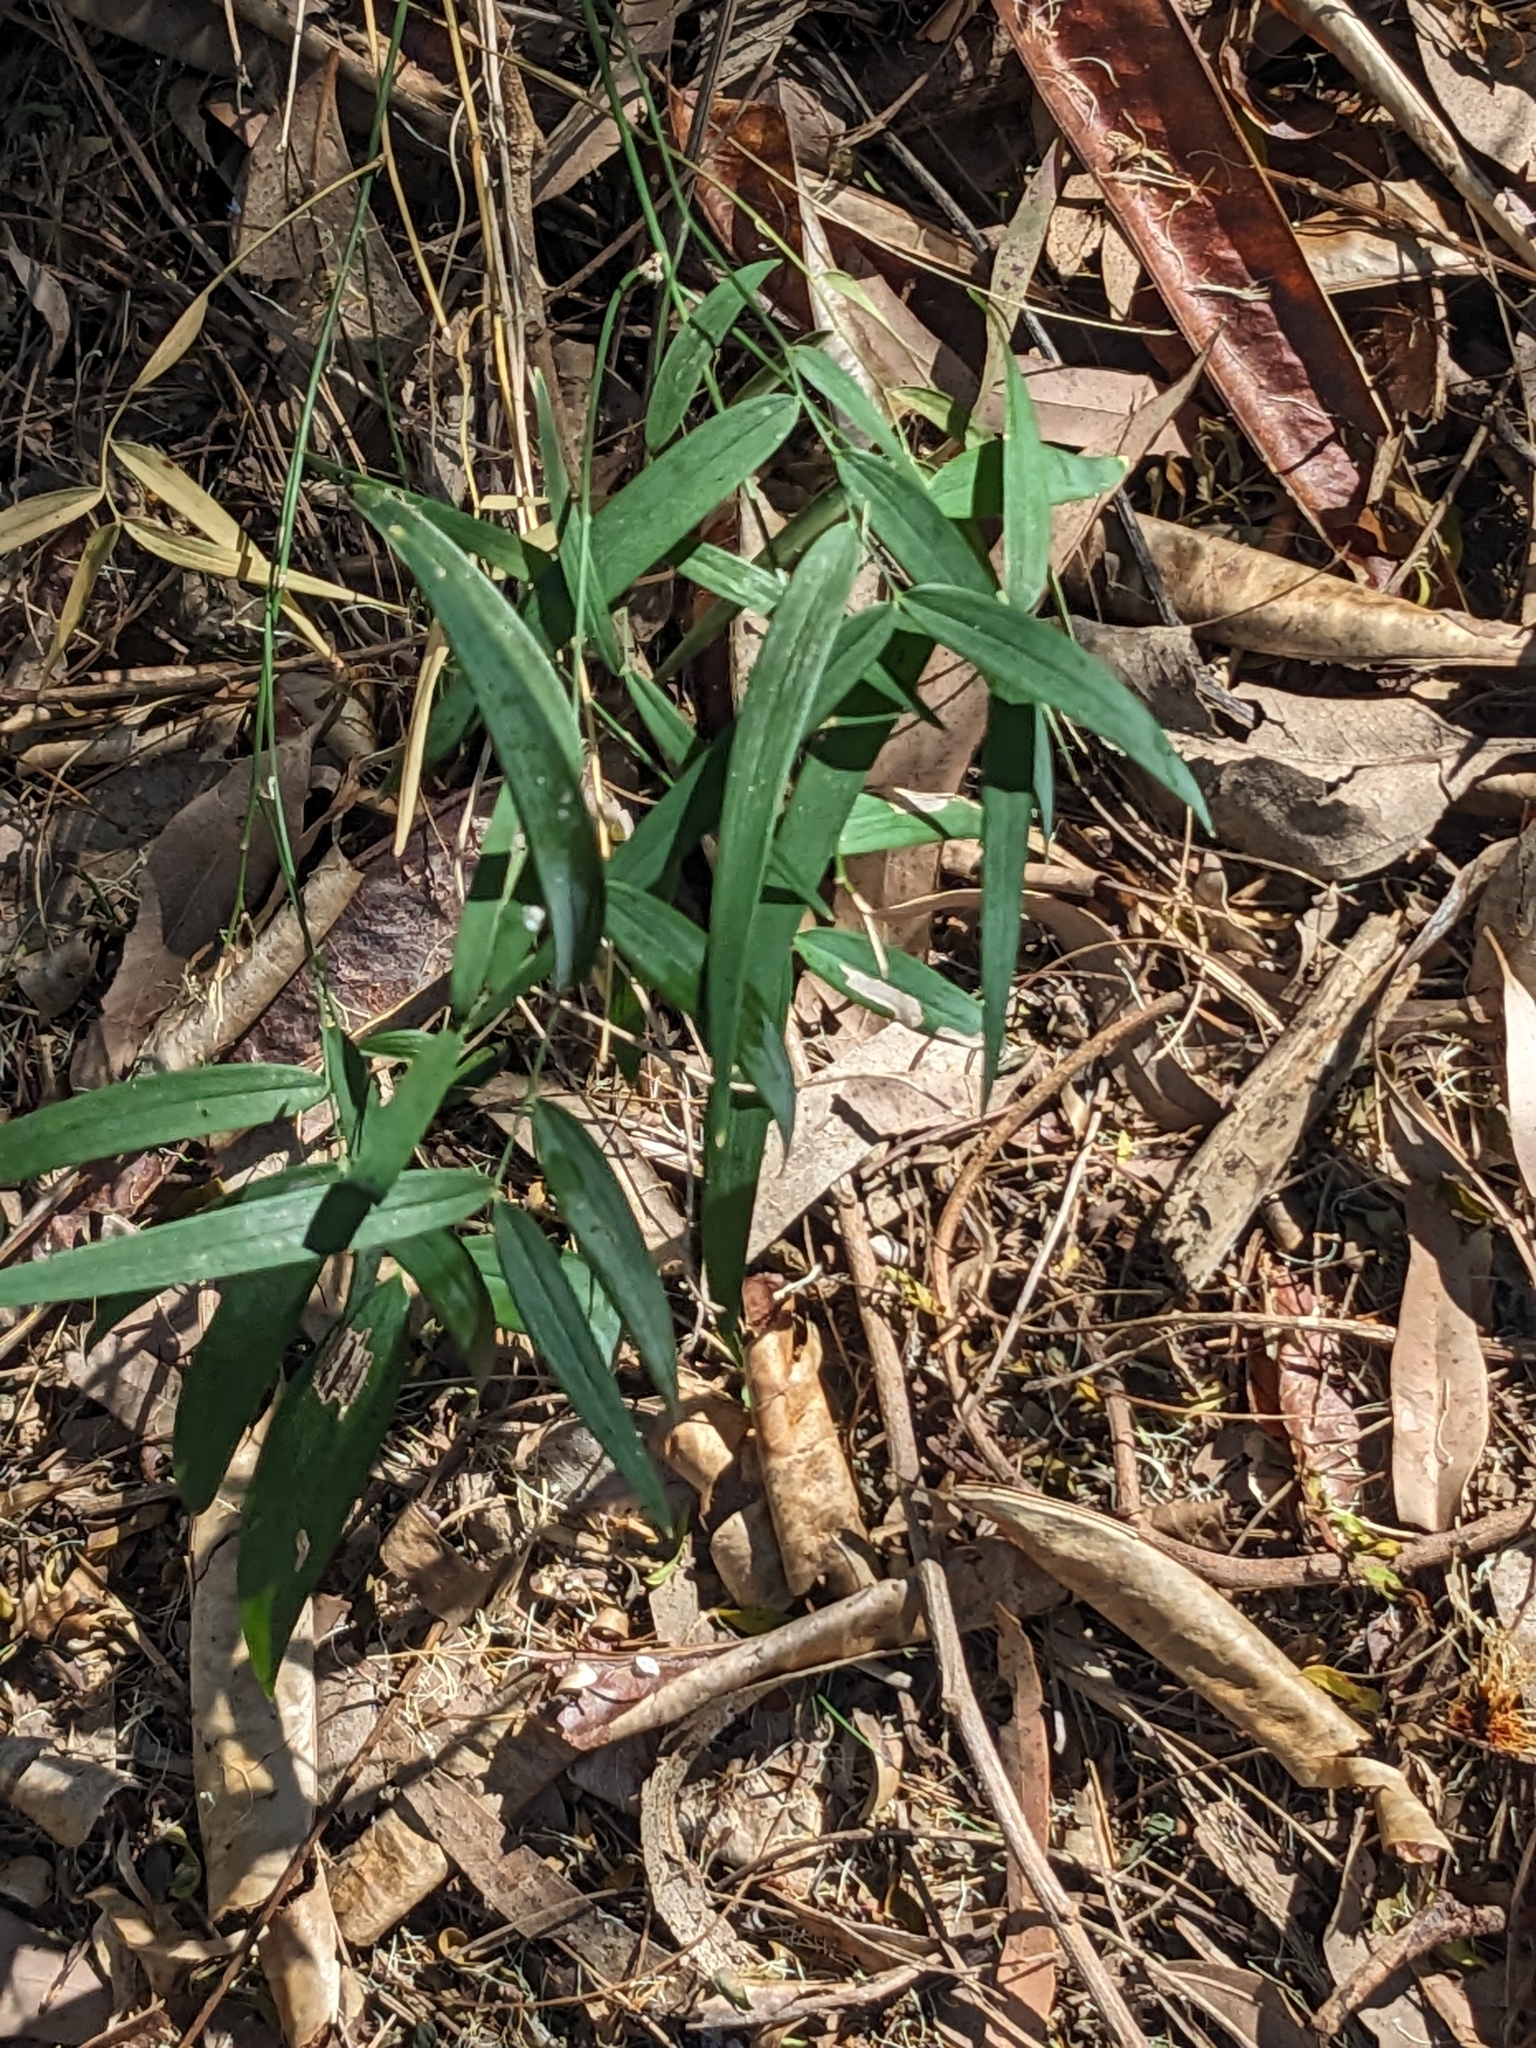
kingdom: Plantae
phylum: Tracheophyta
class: Liliopsida
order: Asparagales
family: Asparagaceae
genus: Eustrephus
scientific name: Eustrephus latifolius
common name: Orangevine
